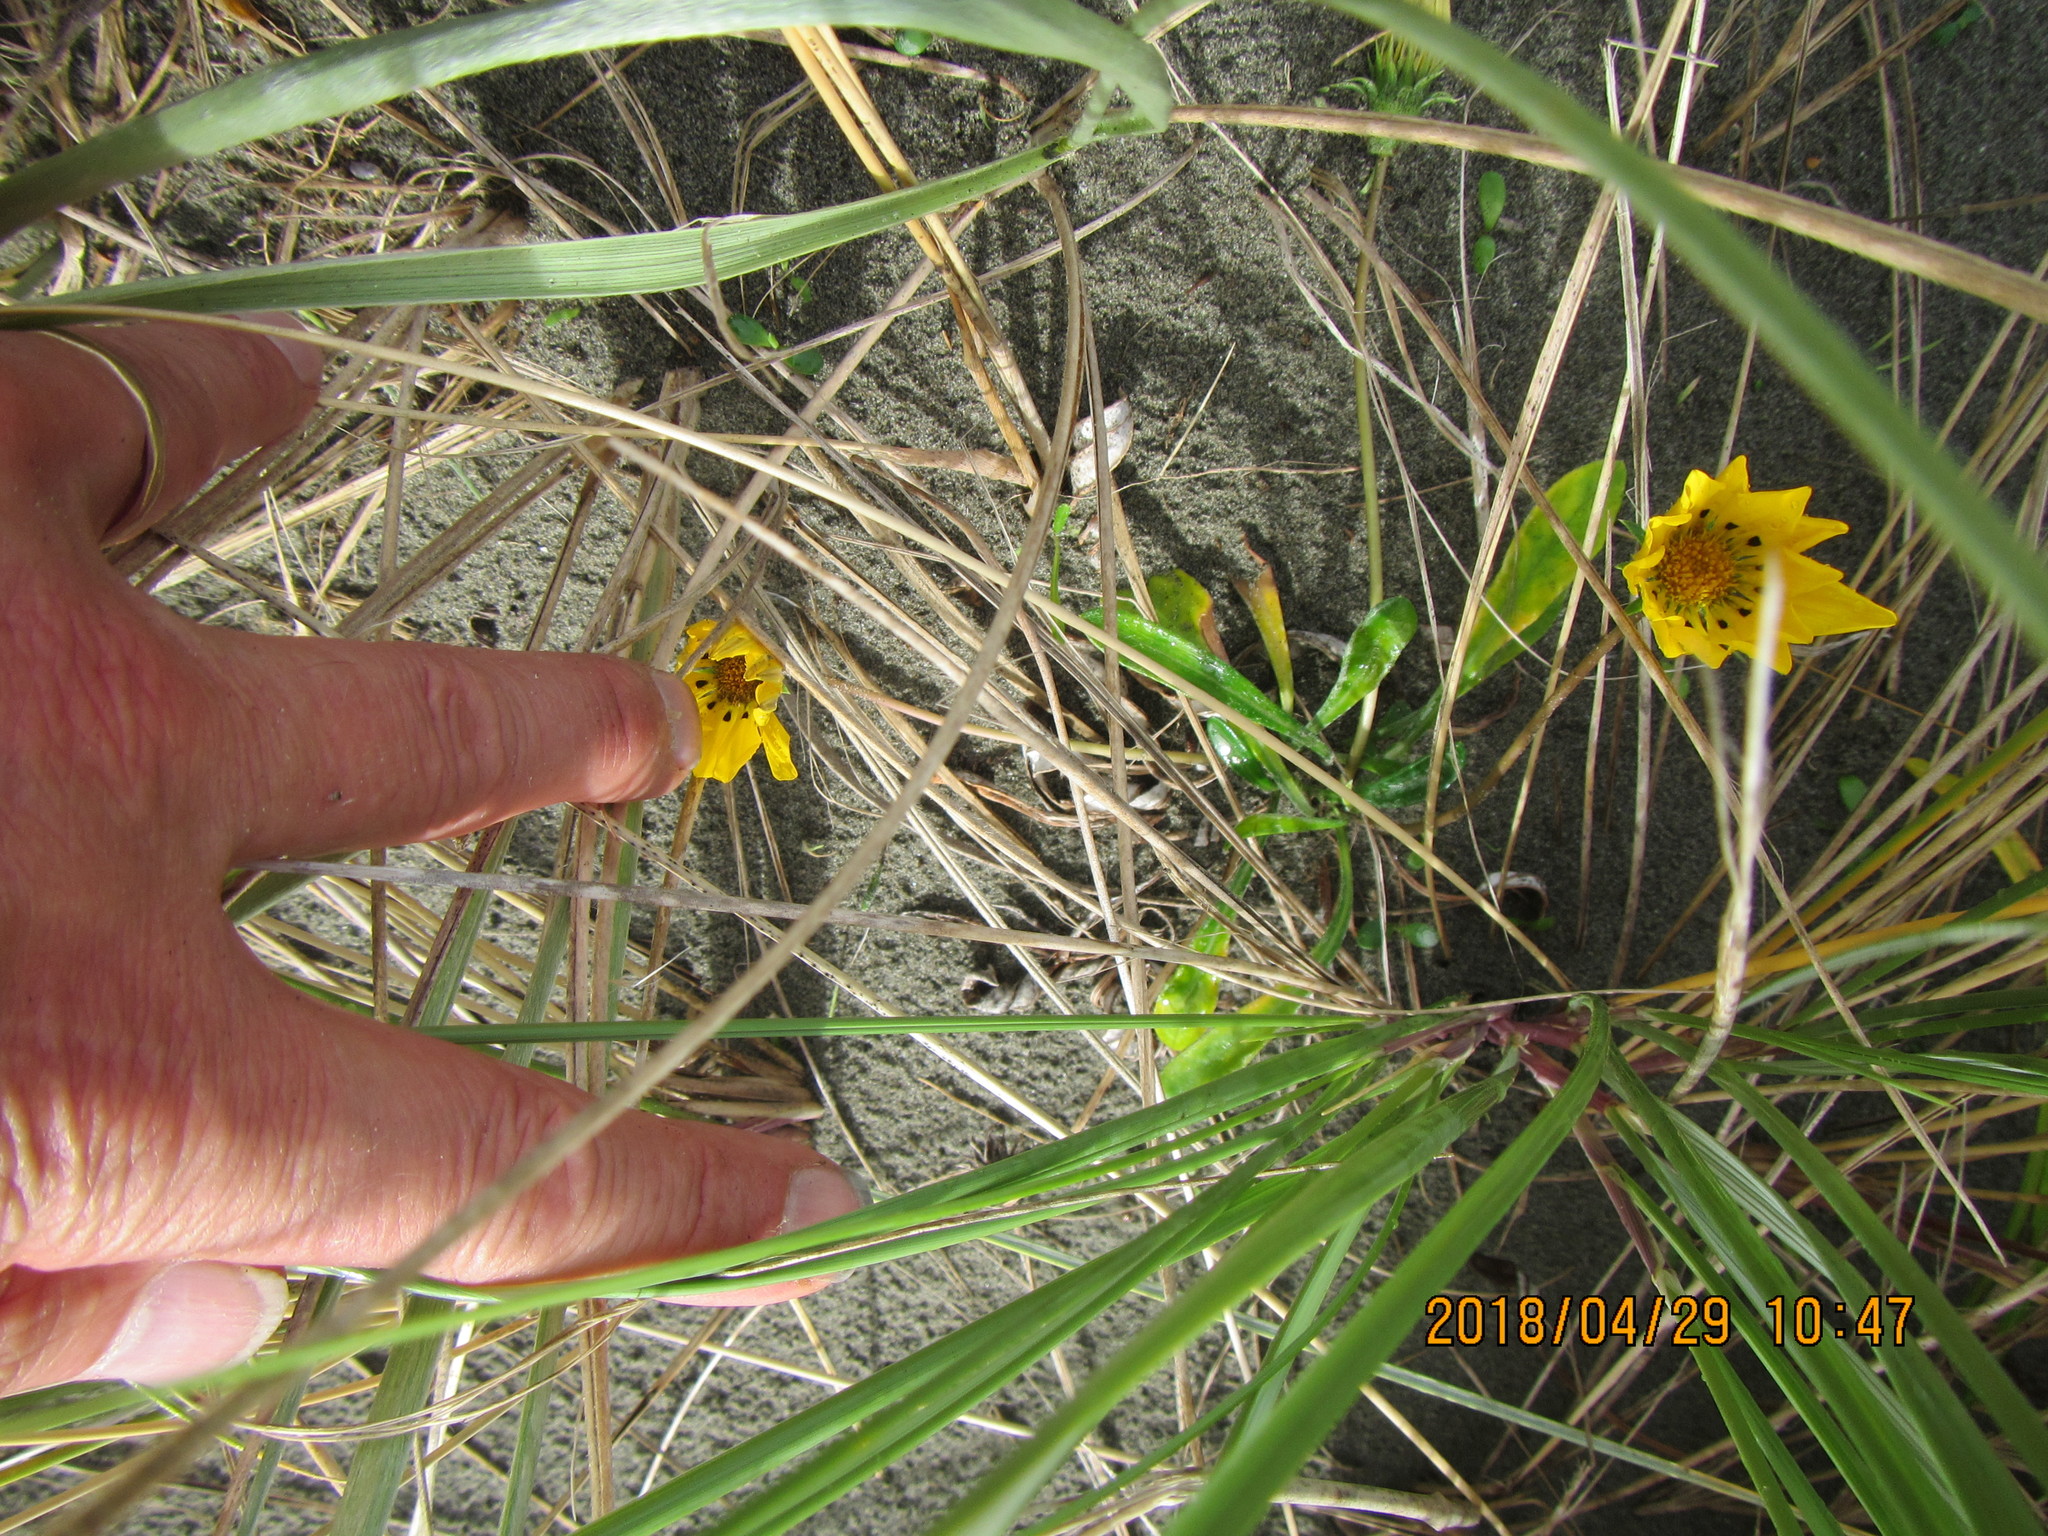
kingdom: Plantae
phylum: Tracheophyta
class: Magnoliopsida
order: Asterales
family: Asteraceae
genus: Gazania
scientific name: Gazania rigens
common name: Treasureflower
